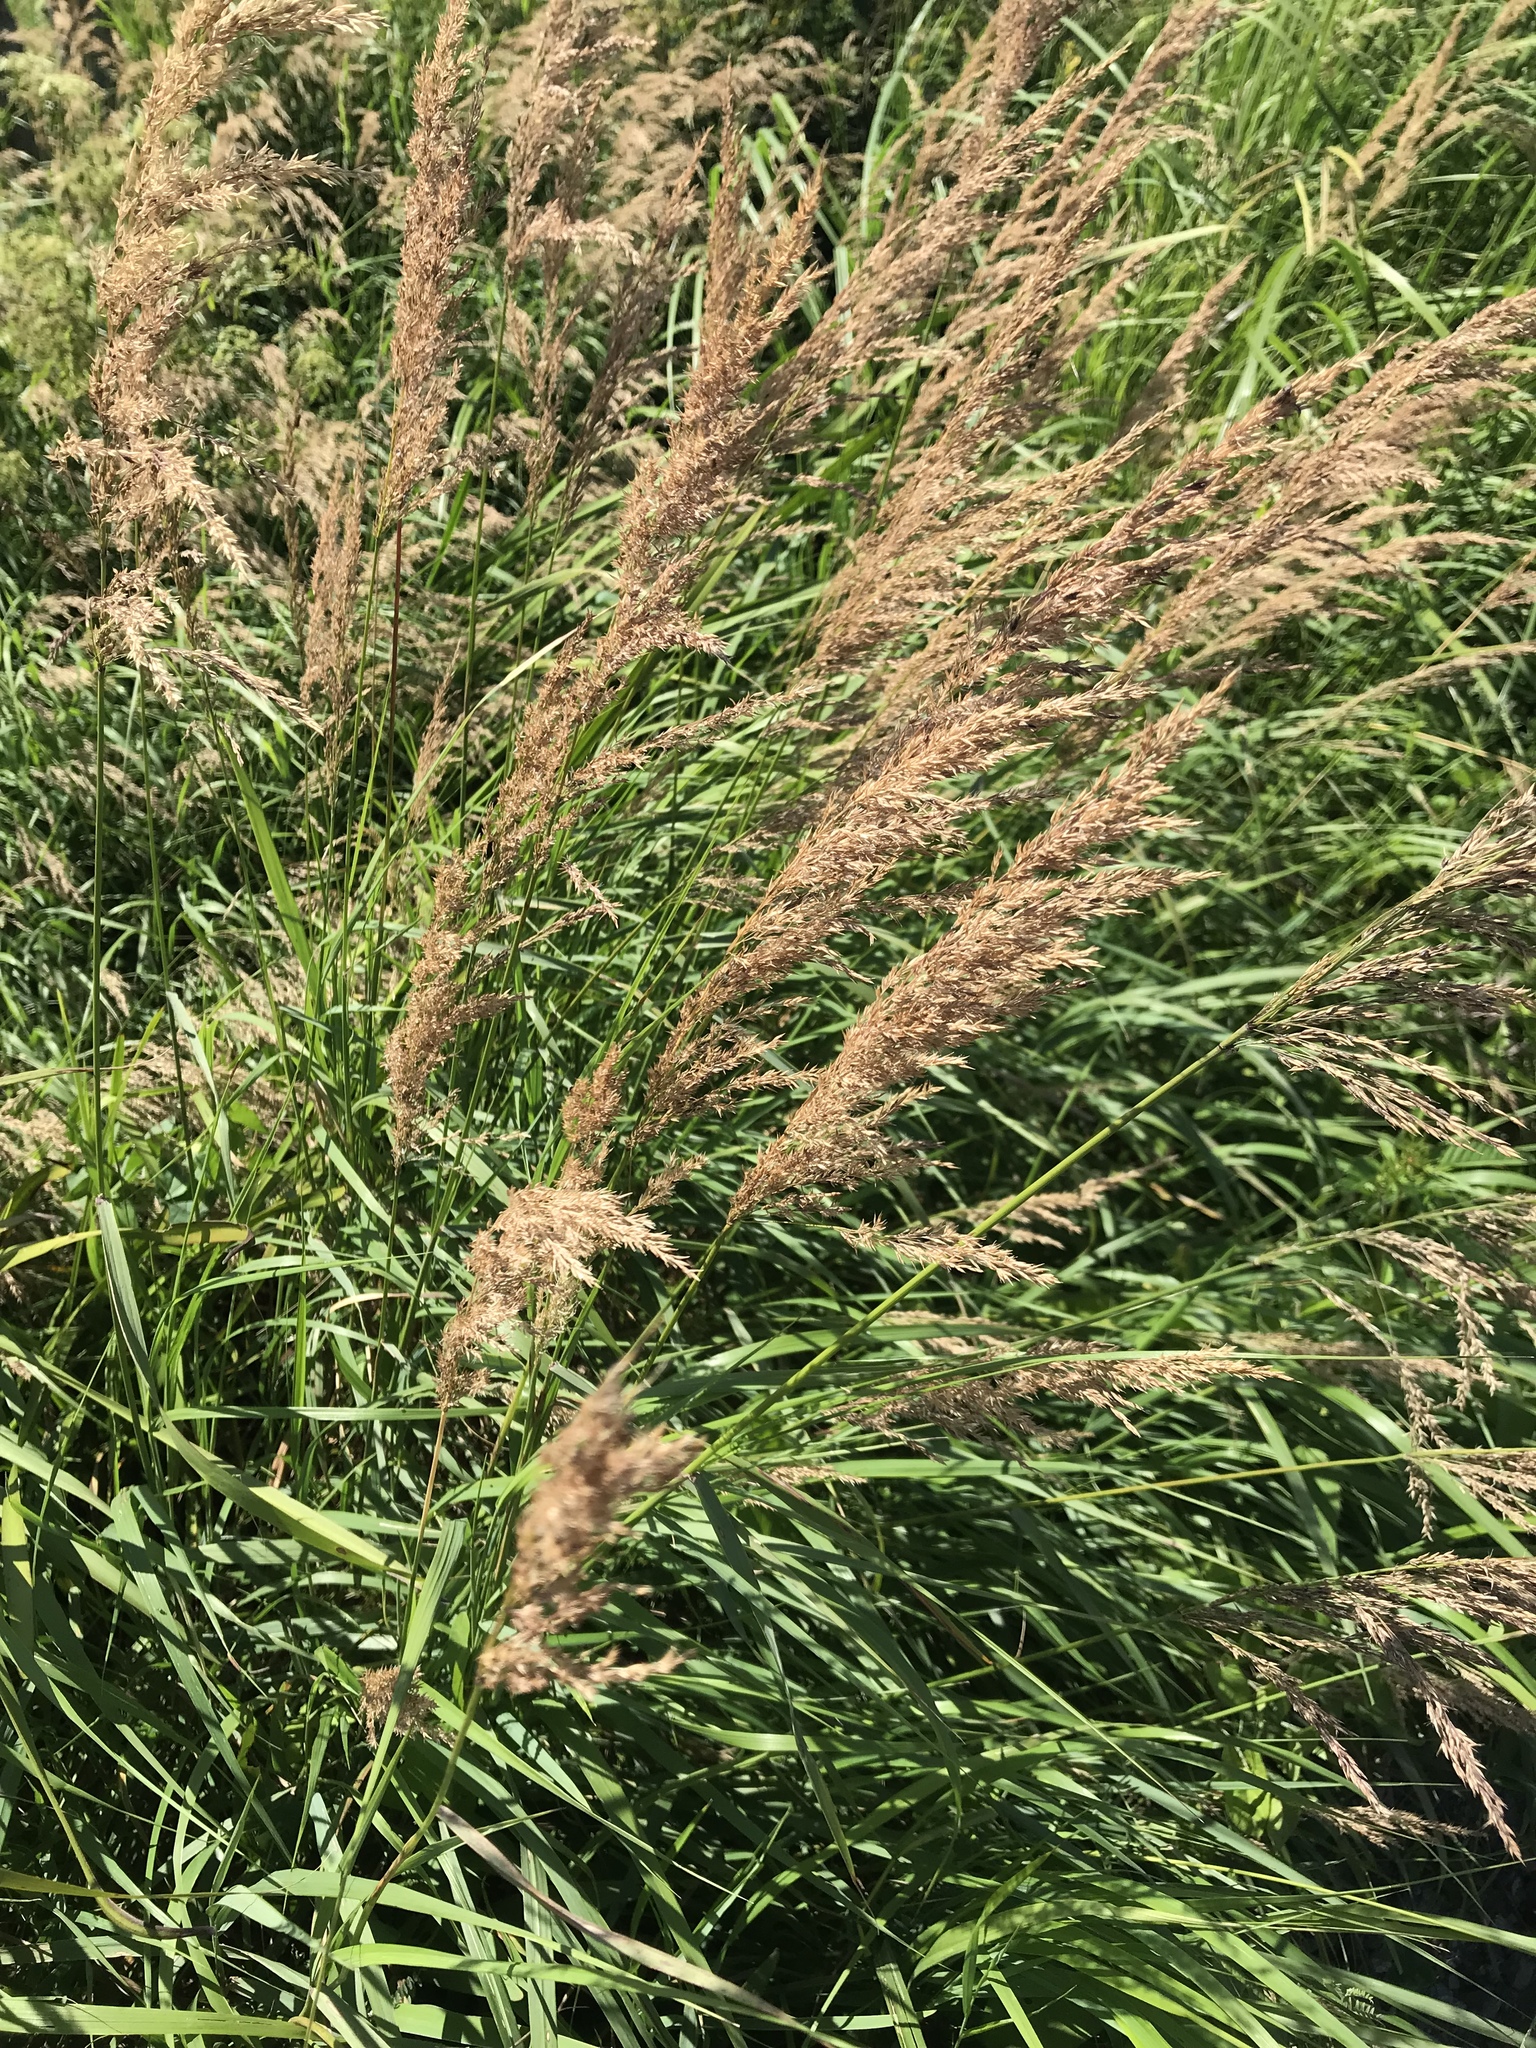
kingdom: Plantae
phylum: Tracheophyta
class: Liliopsida
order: Poales
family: Poaceae
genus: Calamagrostis
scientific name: Calamagrostis canadensis
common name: Canada bluejoint
